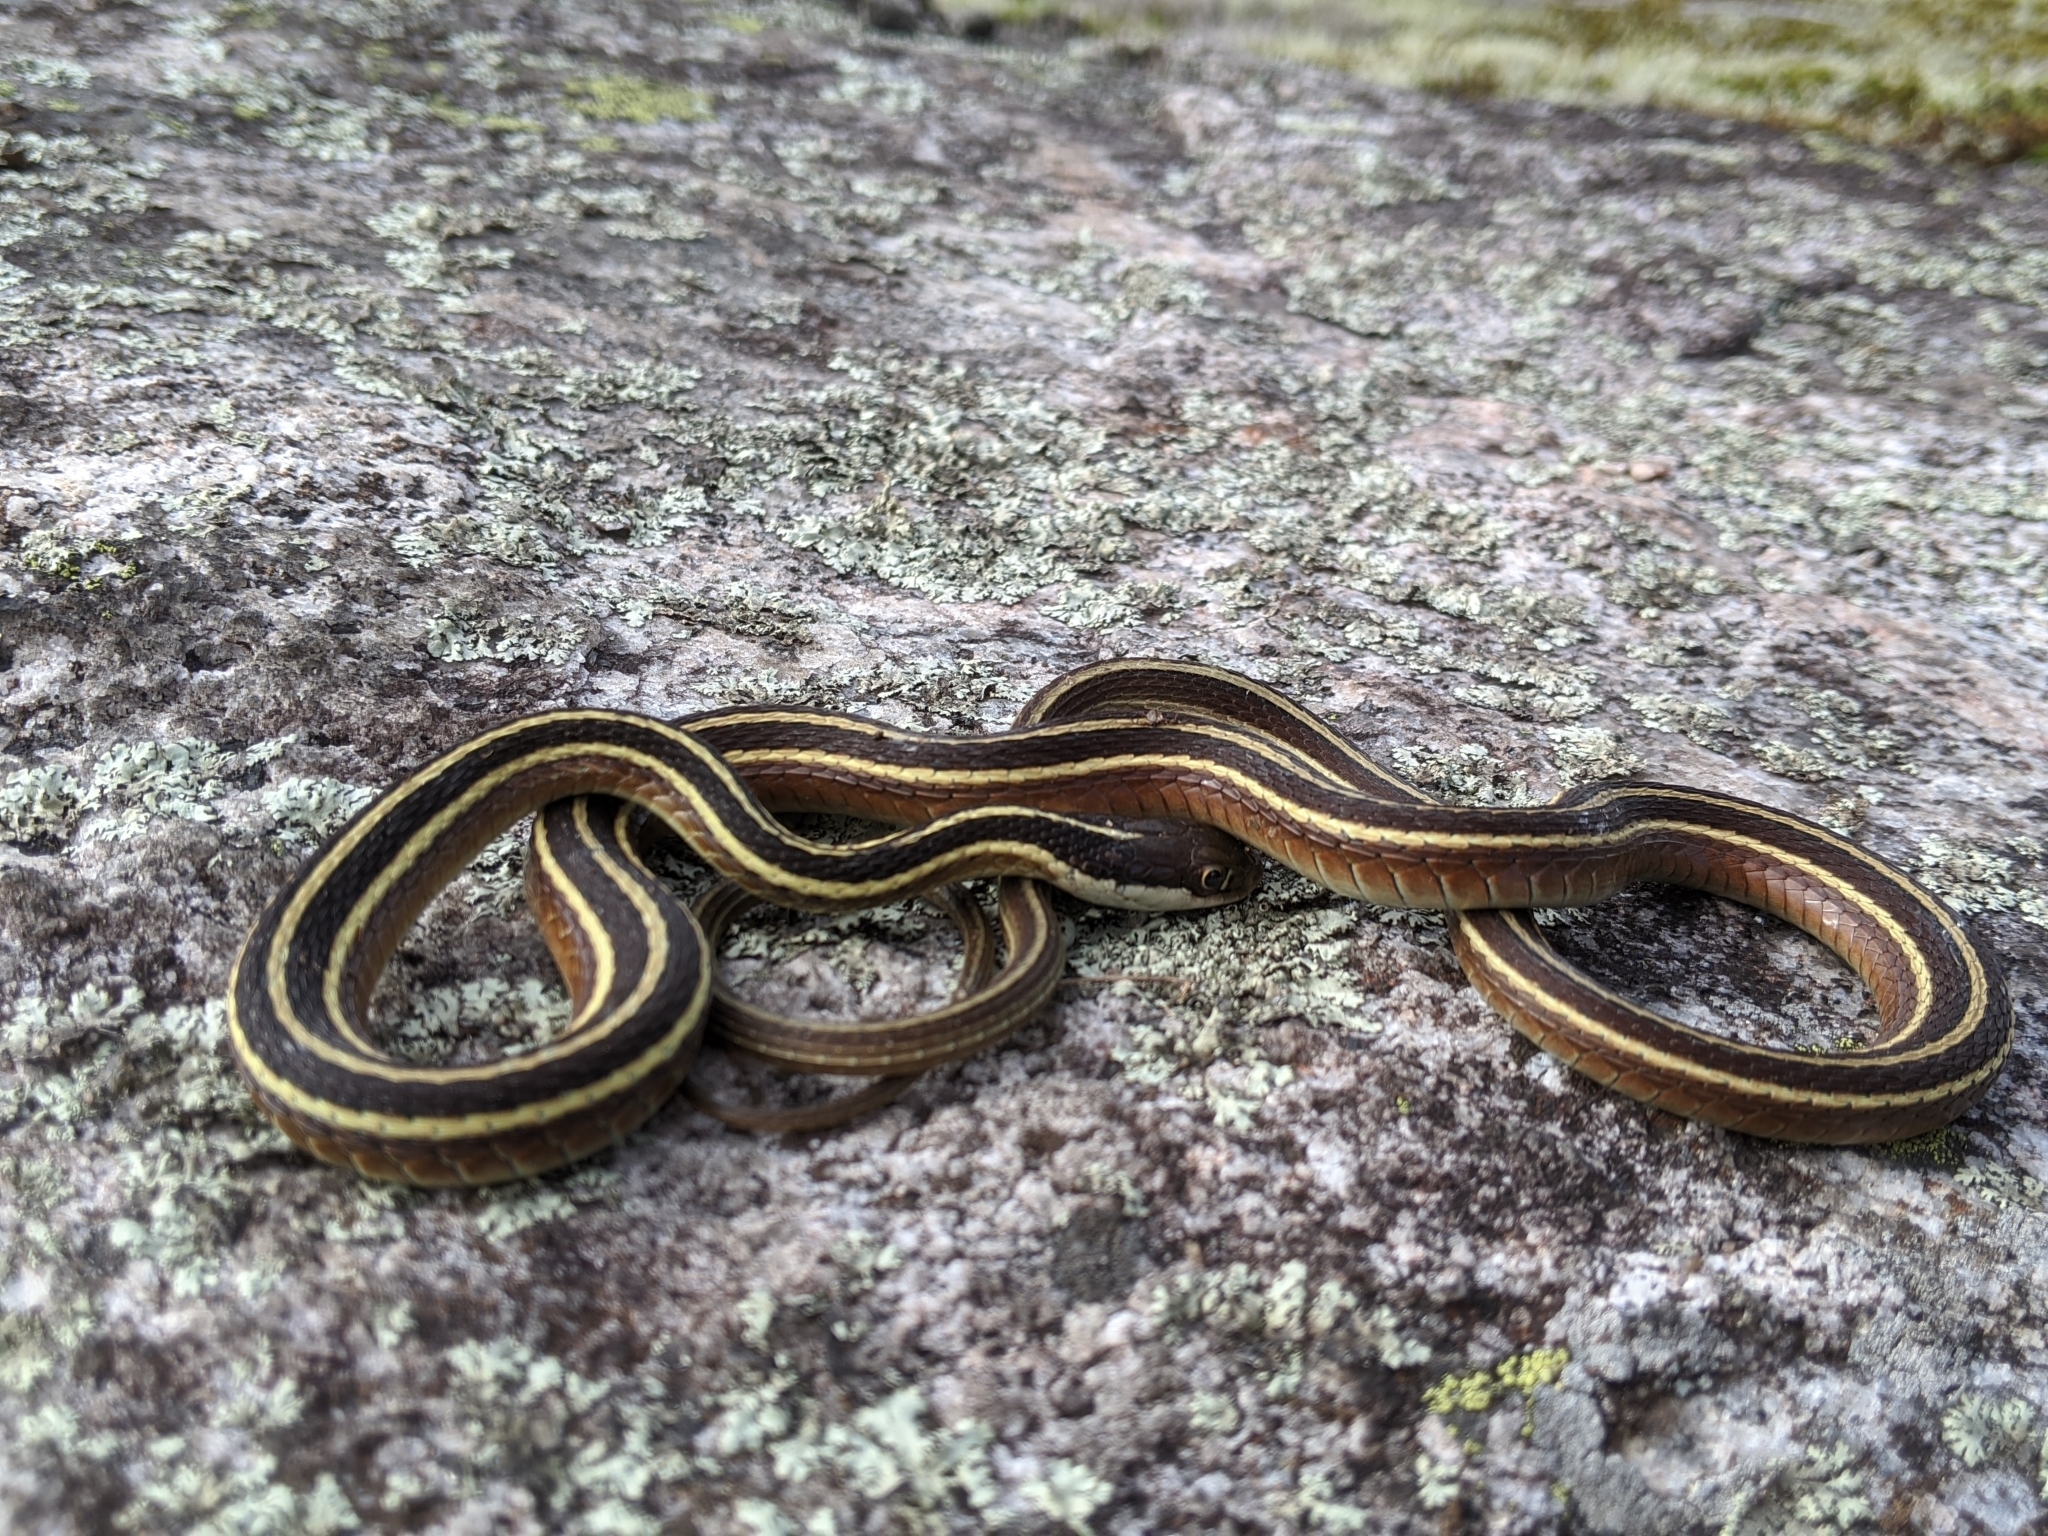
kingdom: Animalia
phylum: Chordata
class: Squamata
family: Colubridae
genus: Thamnophis
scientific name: Thamnophis saurita
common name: Eastern ribbonsnake
